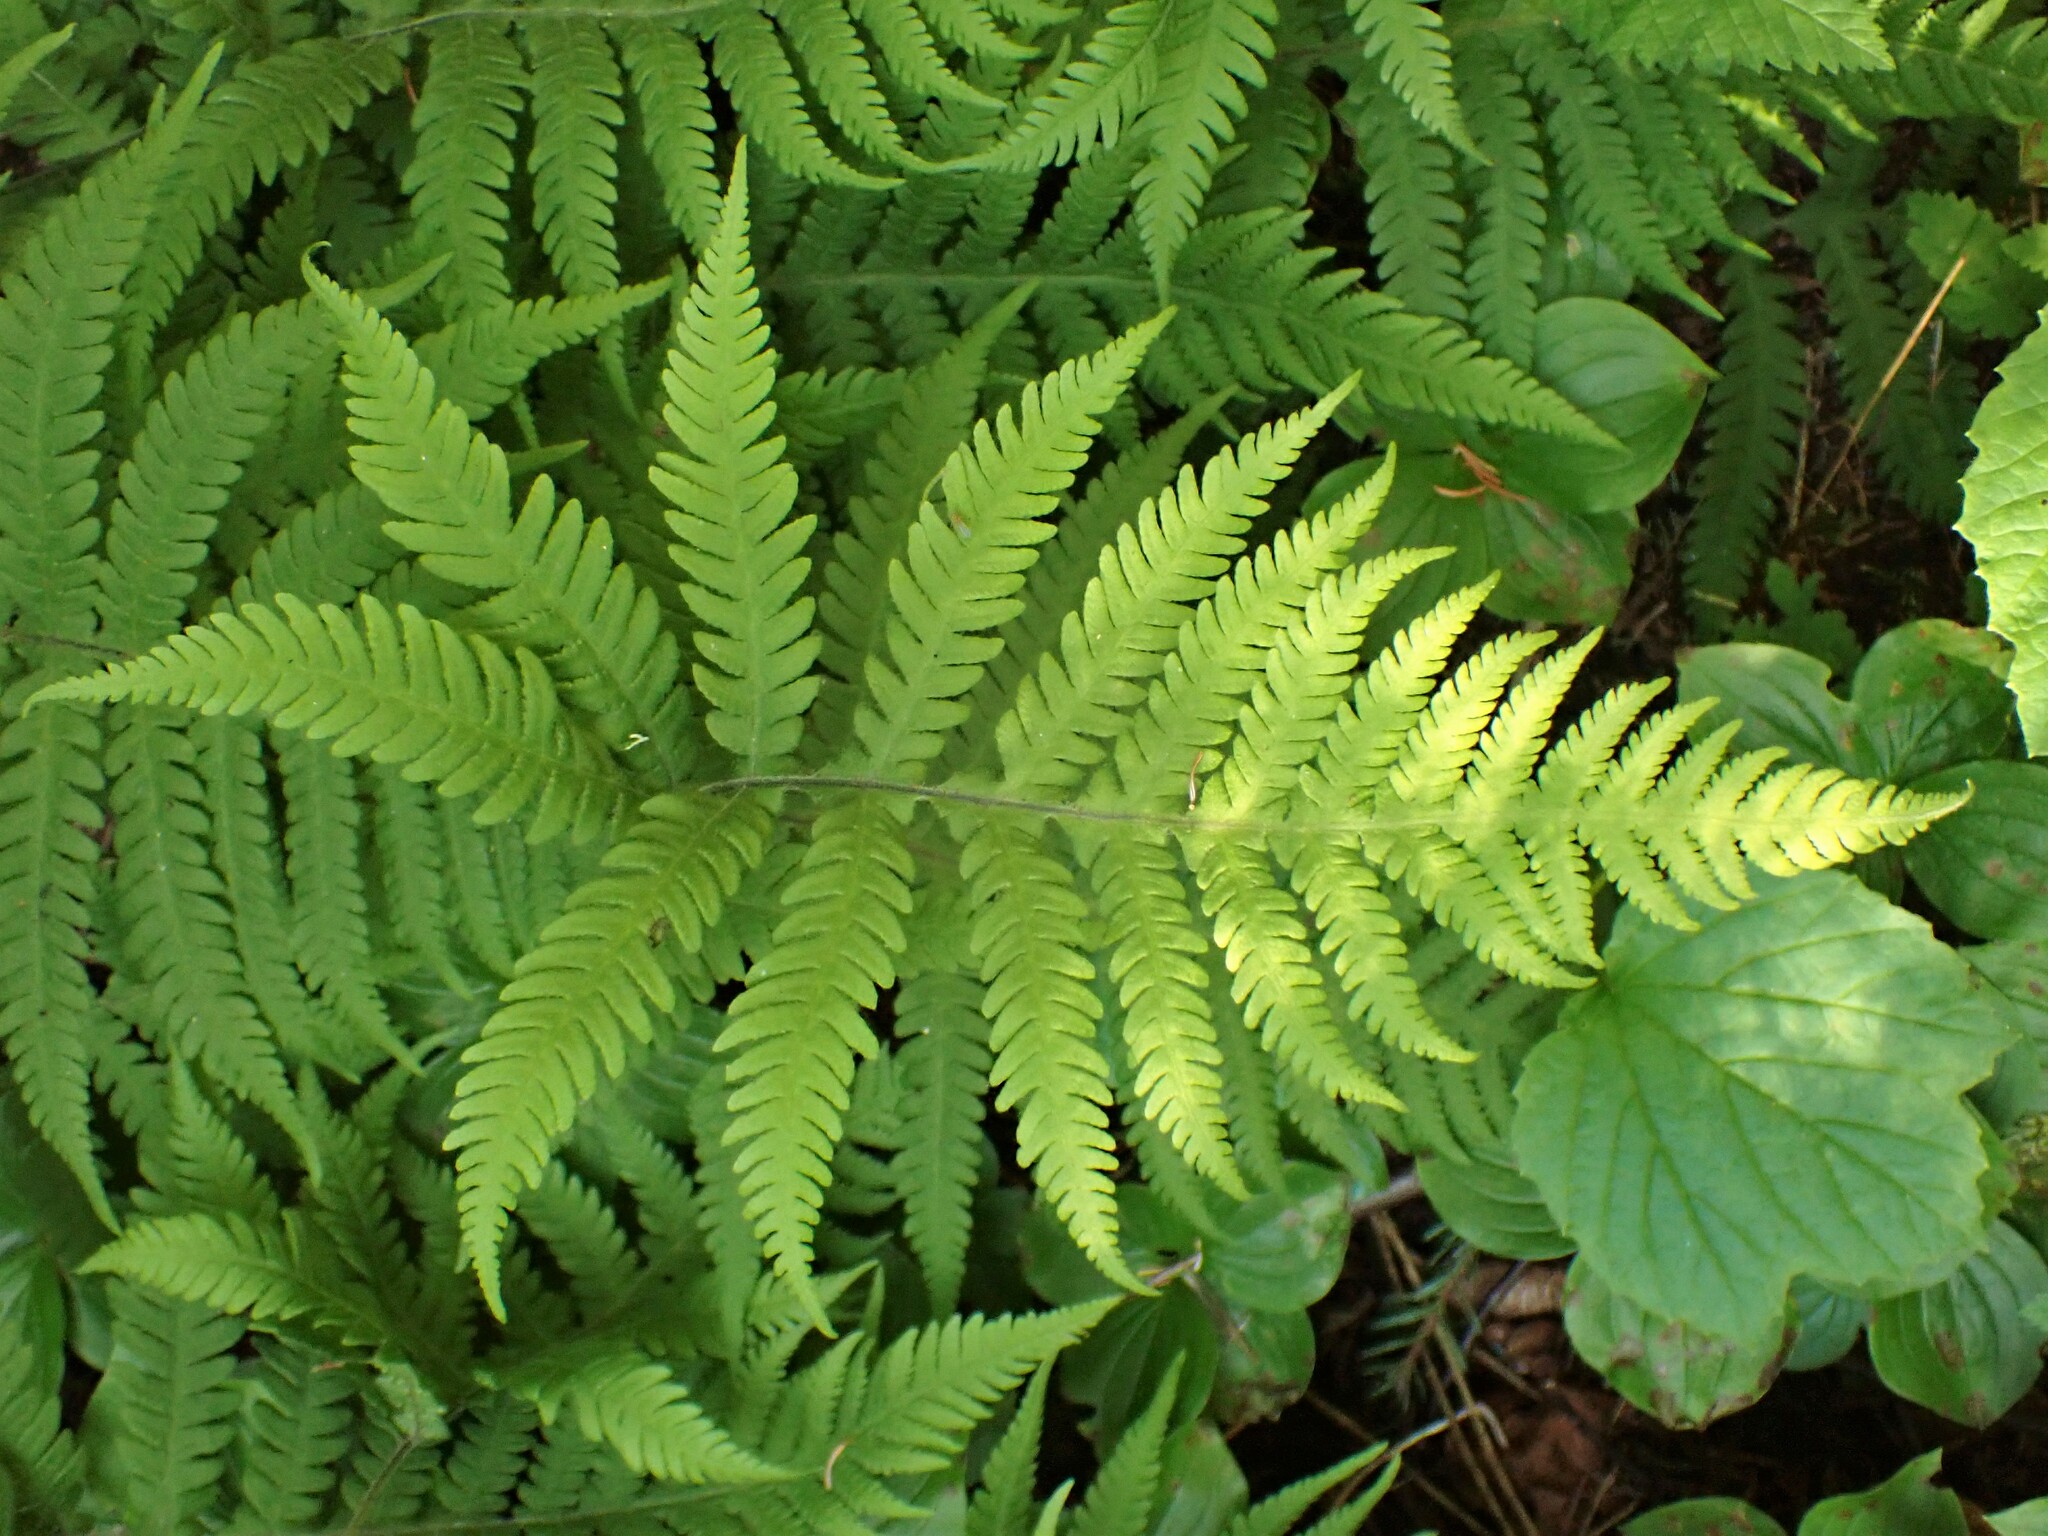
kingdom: Plantae
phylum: Tracheophyta
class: Polypodiopsida
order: Polypodiales
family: Thelypteridaceae
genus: Phegopteris
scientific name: Phegopteris connectilis
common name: Beech fern
